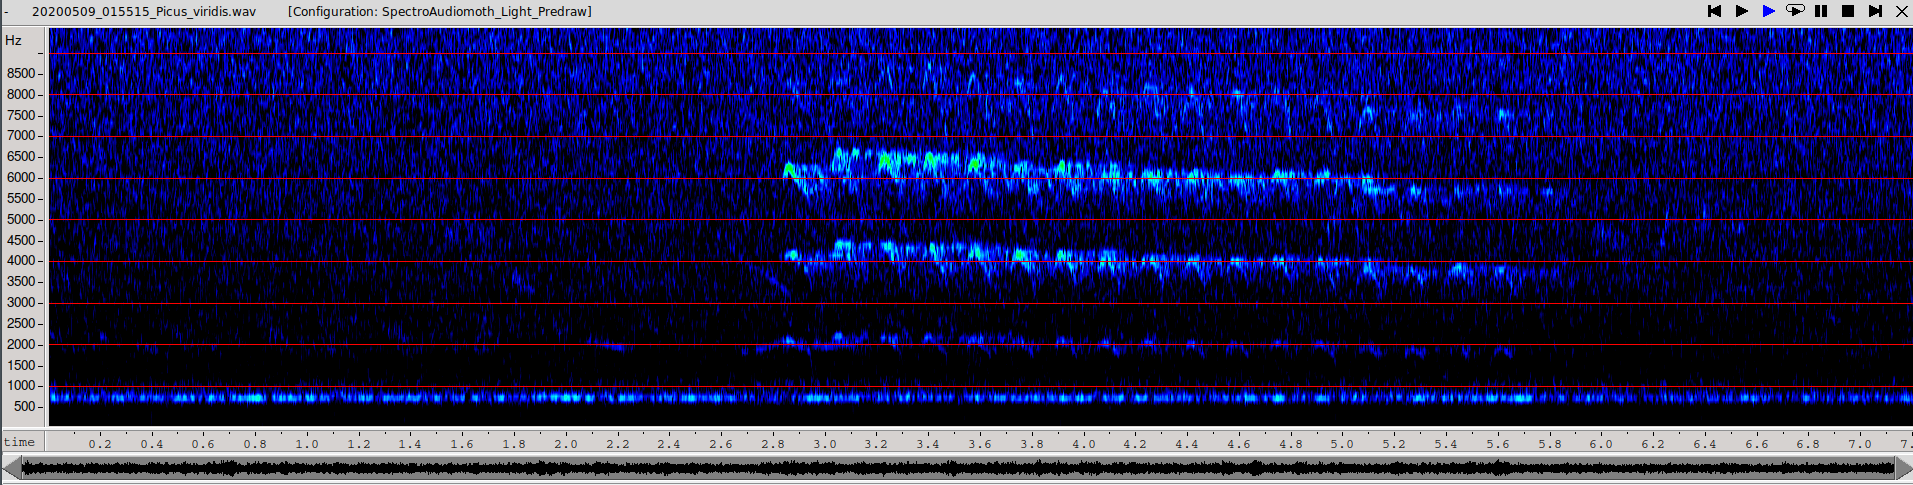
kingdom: Animalia
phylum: Chordata
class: Aves
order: Piciformes
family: Picidae
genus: Picus
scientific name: Picus viridis
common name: European green woodpecker
